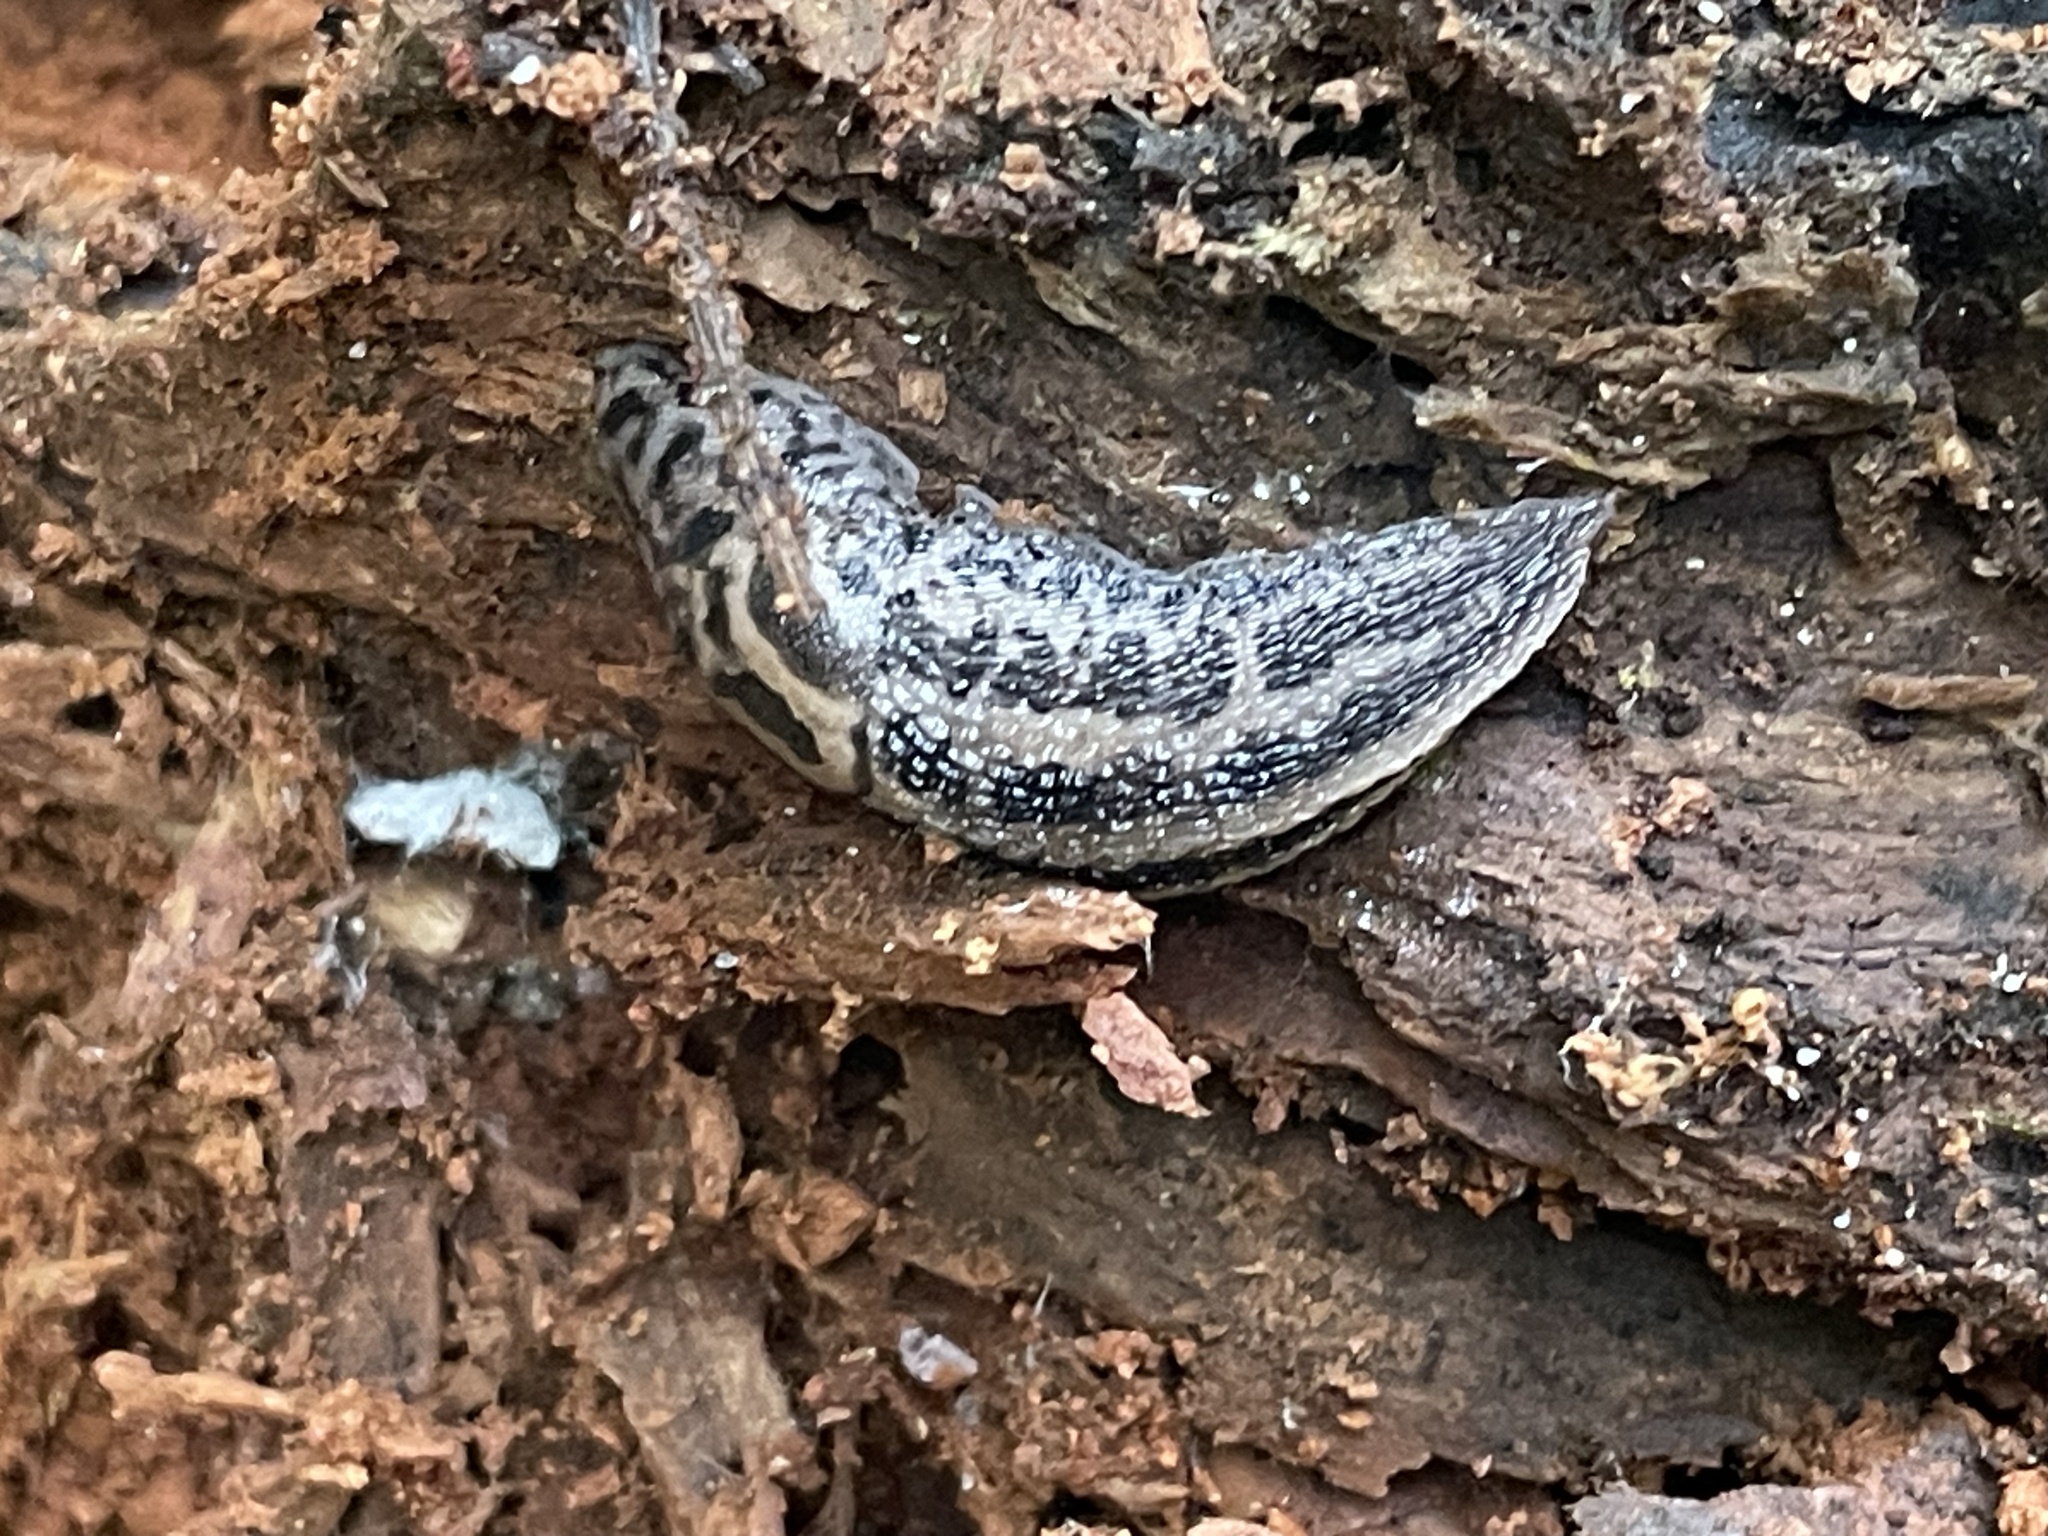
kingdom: Animalia
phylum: Mollusca
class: Gastropoda
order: Stylommatophora
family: Limacidae
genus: Limax
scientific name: Limax maximus
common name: Great grey slug
